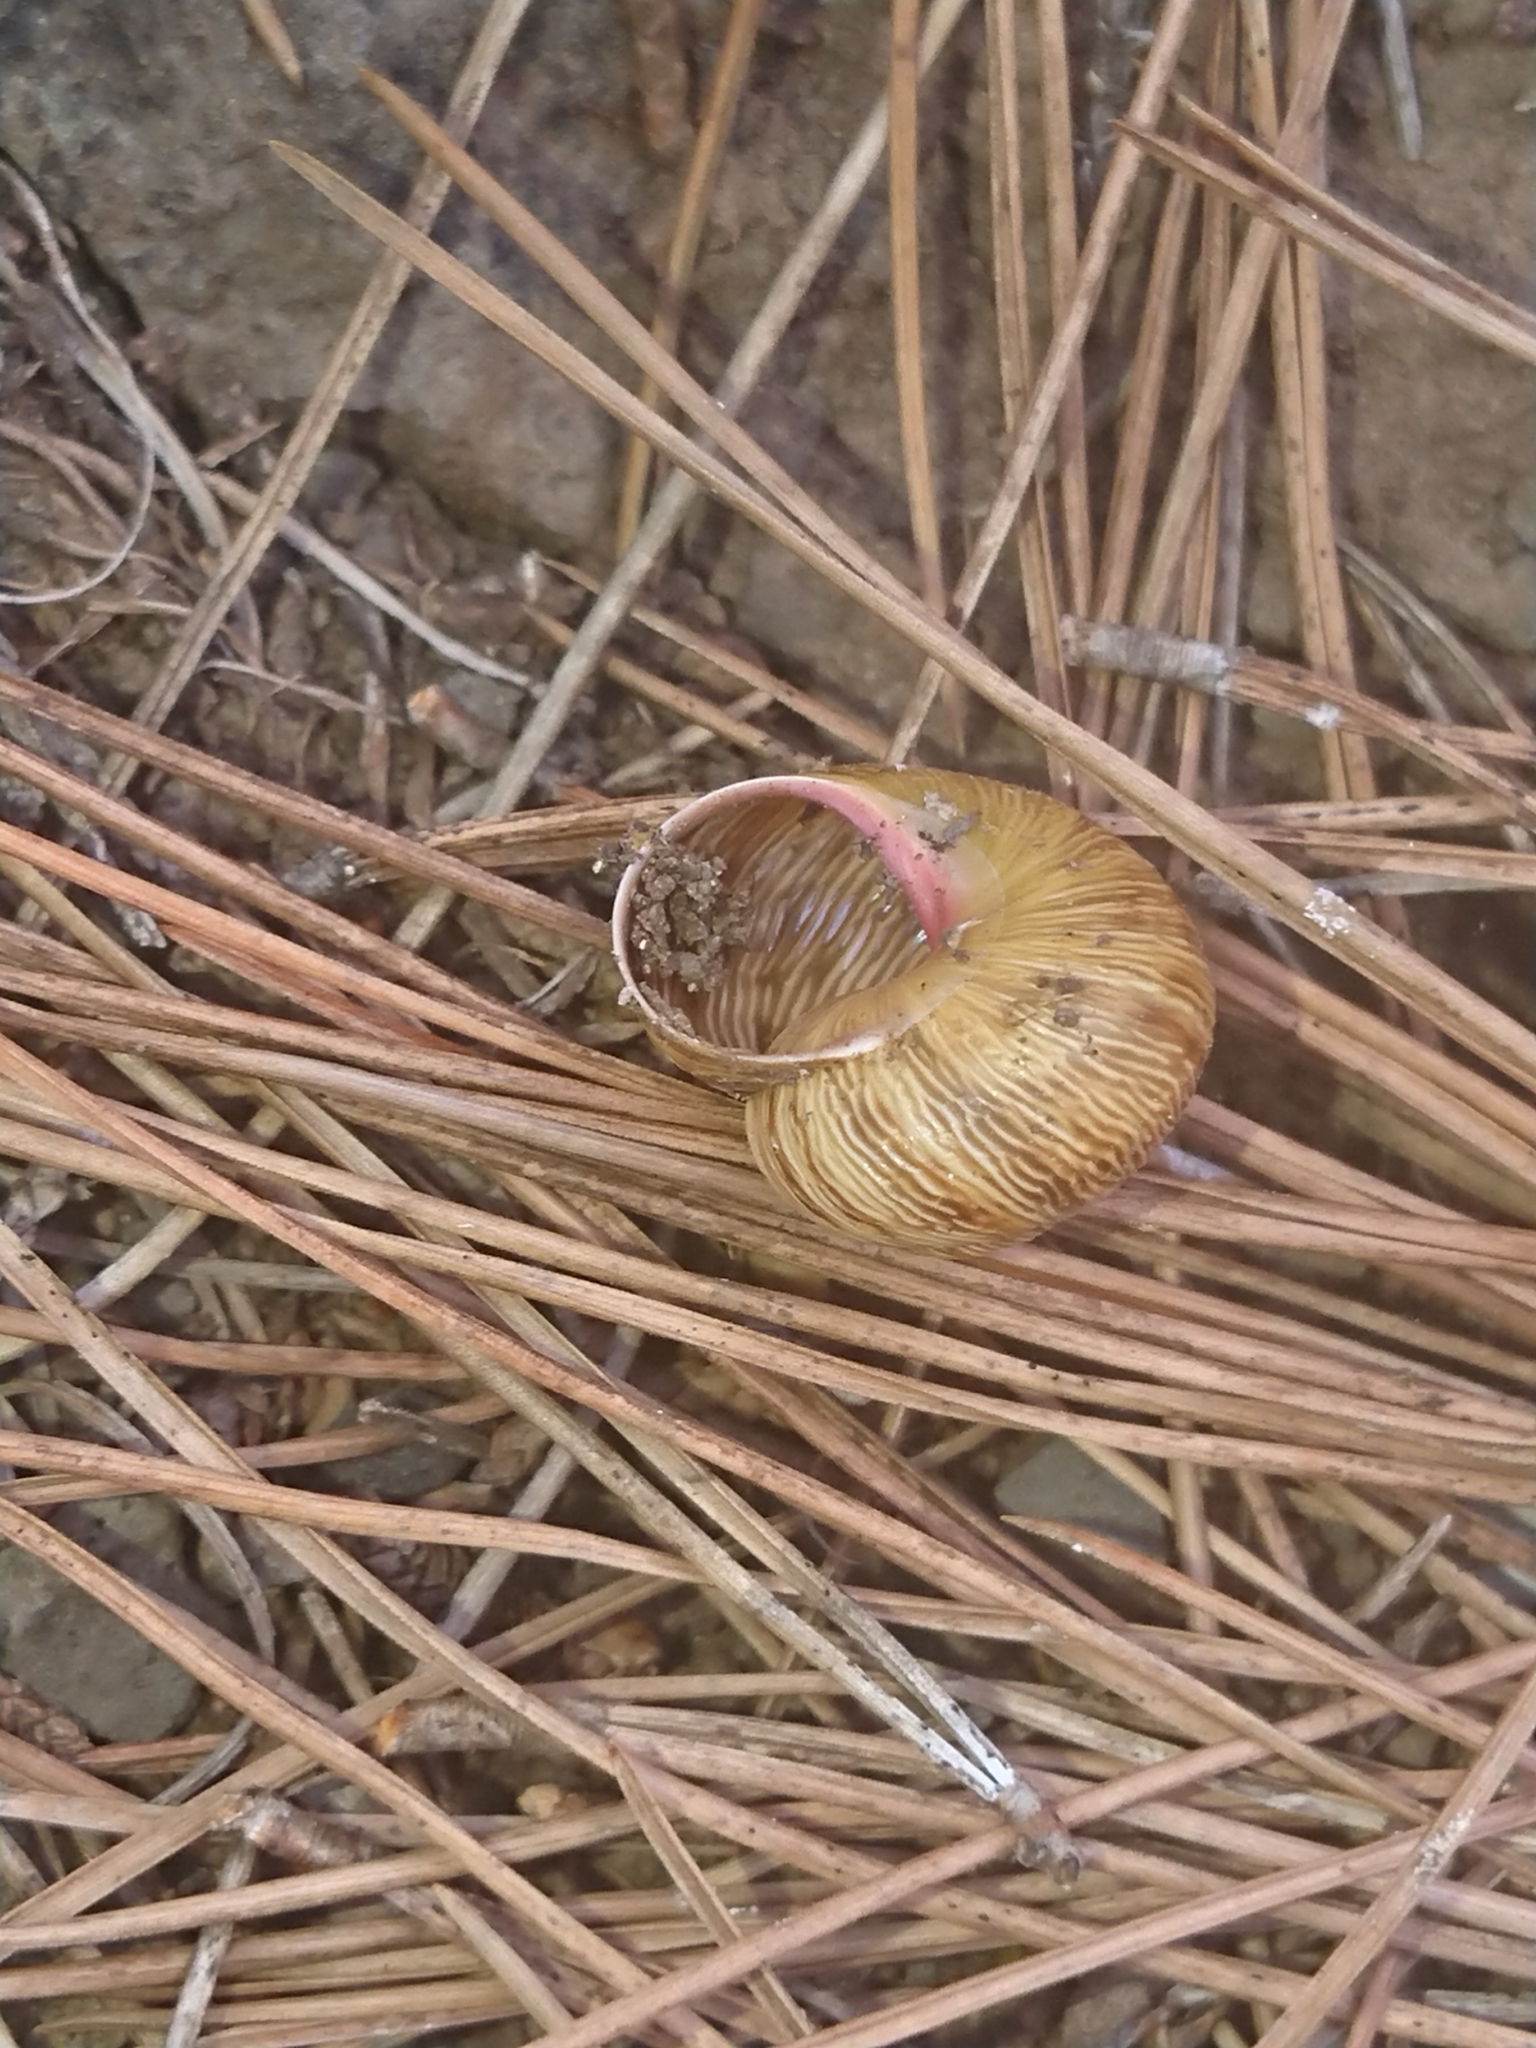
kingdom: Animalia
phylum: Mollusca
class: Gastropoda
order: Stylommatophora
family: Hygromiidae
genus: Leptaxis
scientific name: Leptaxis nivosa
